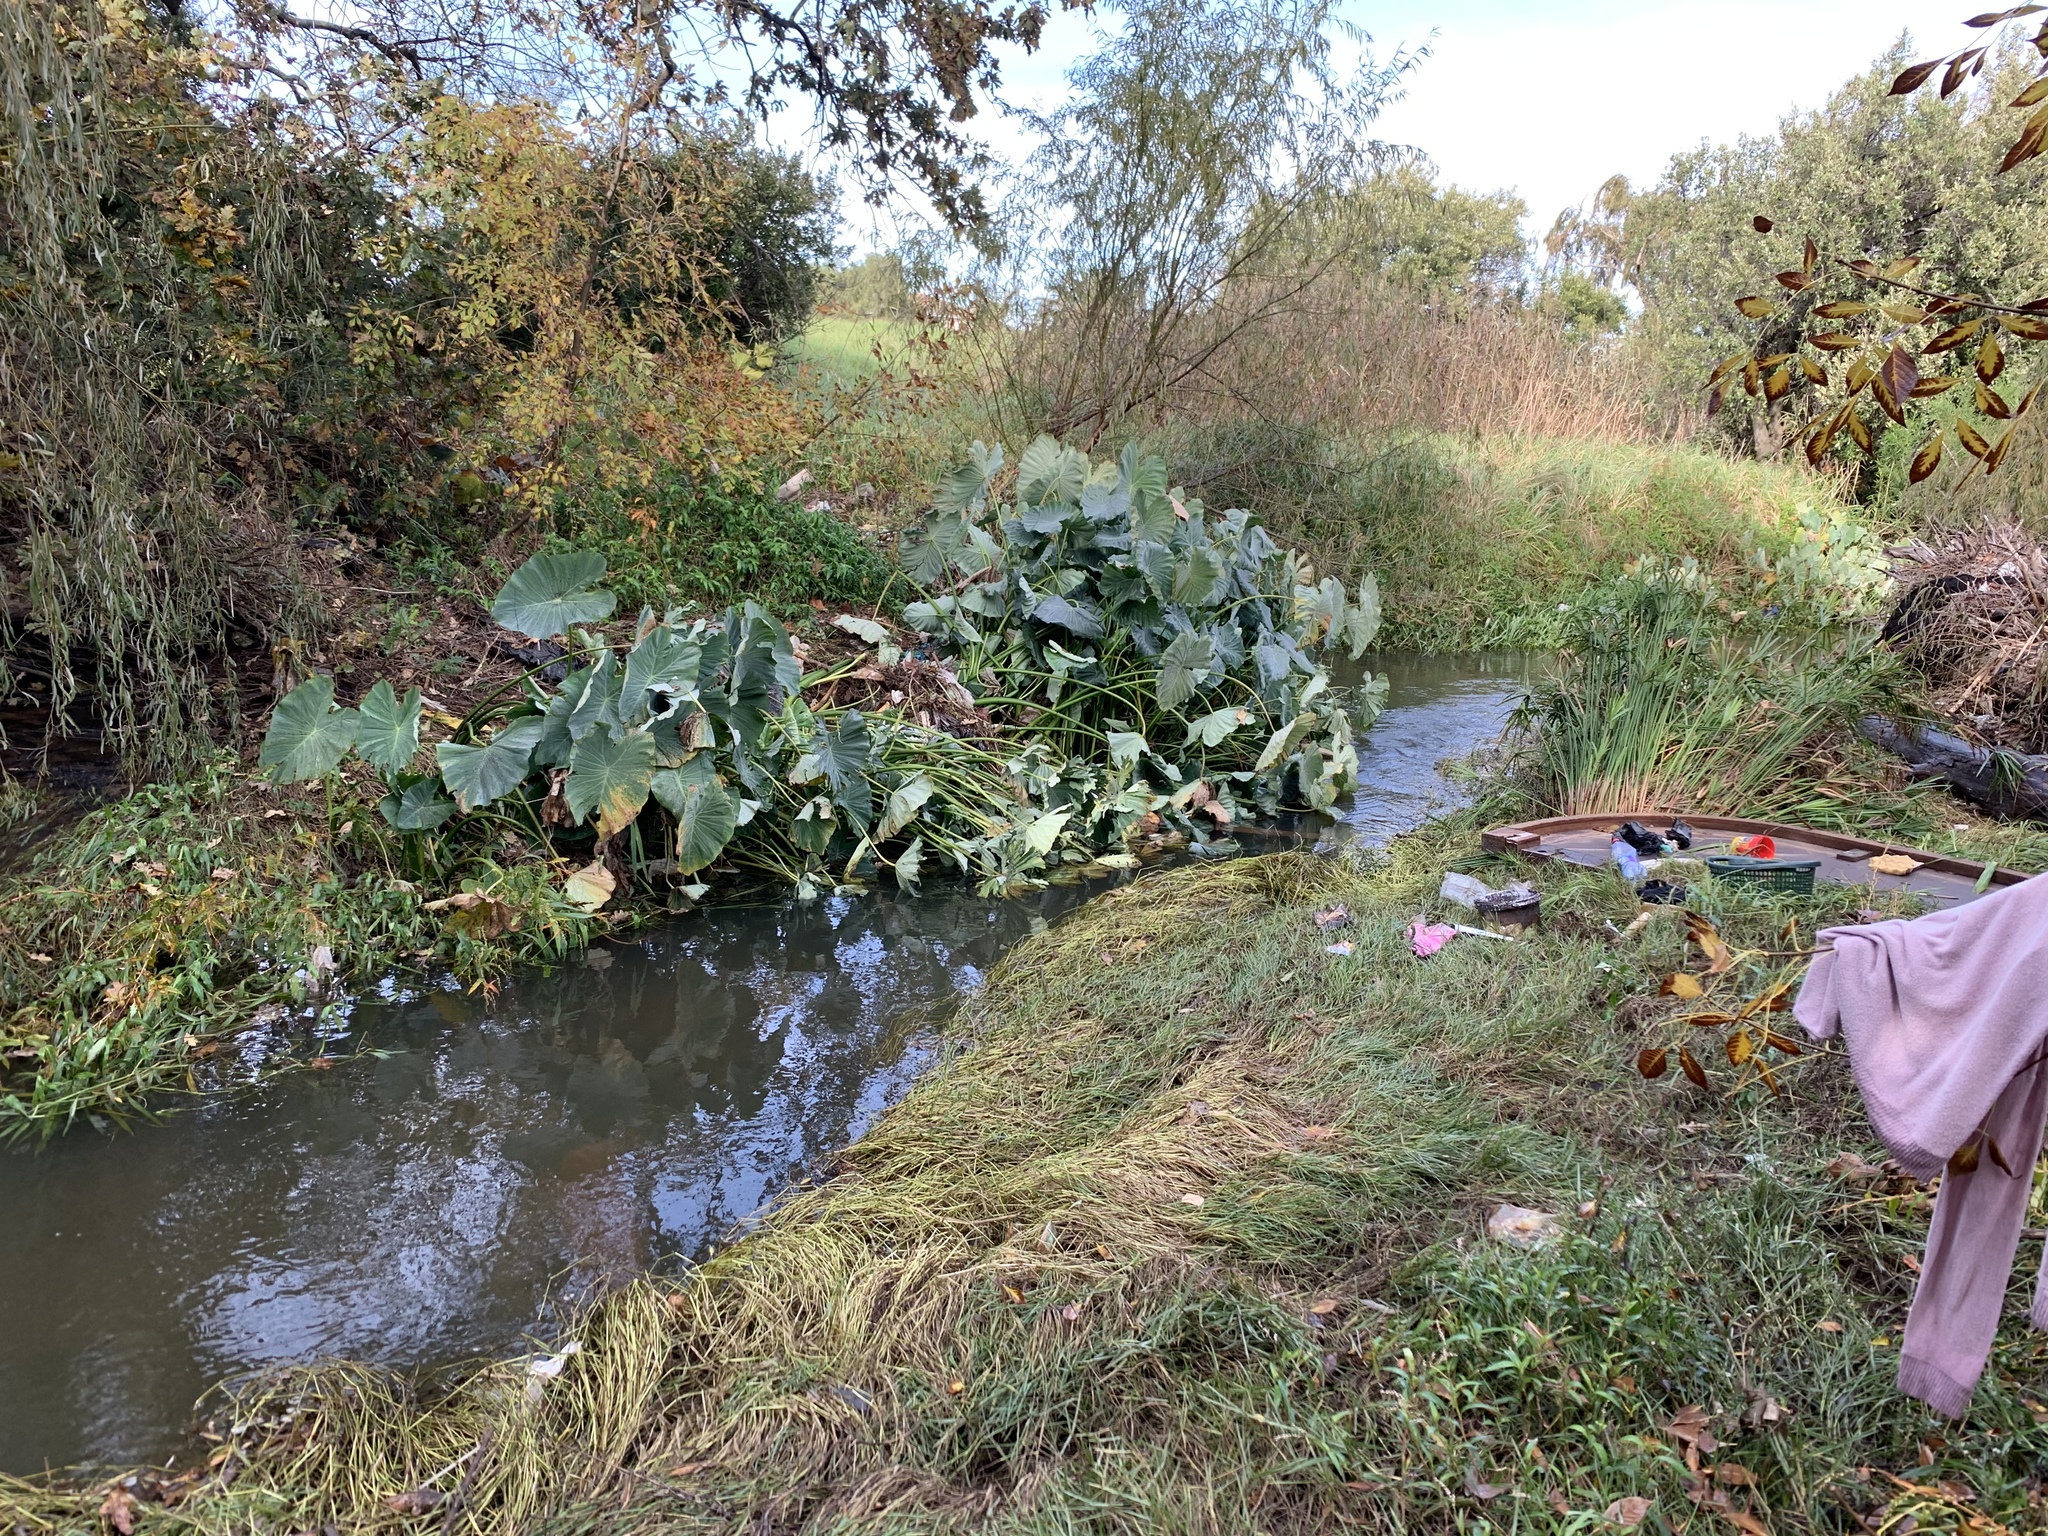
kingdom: Plantae
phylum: Tracheophyta
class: Liliopsida
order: Alismatales
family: Araceae
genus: Colocasia
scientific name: Colocasia esculenta
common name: Taro
